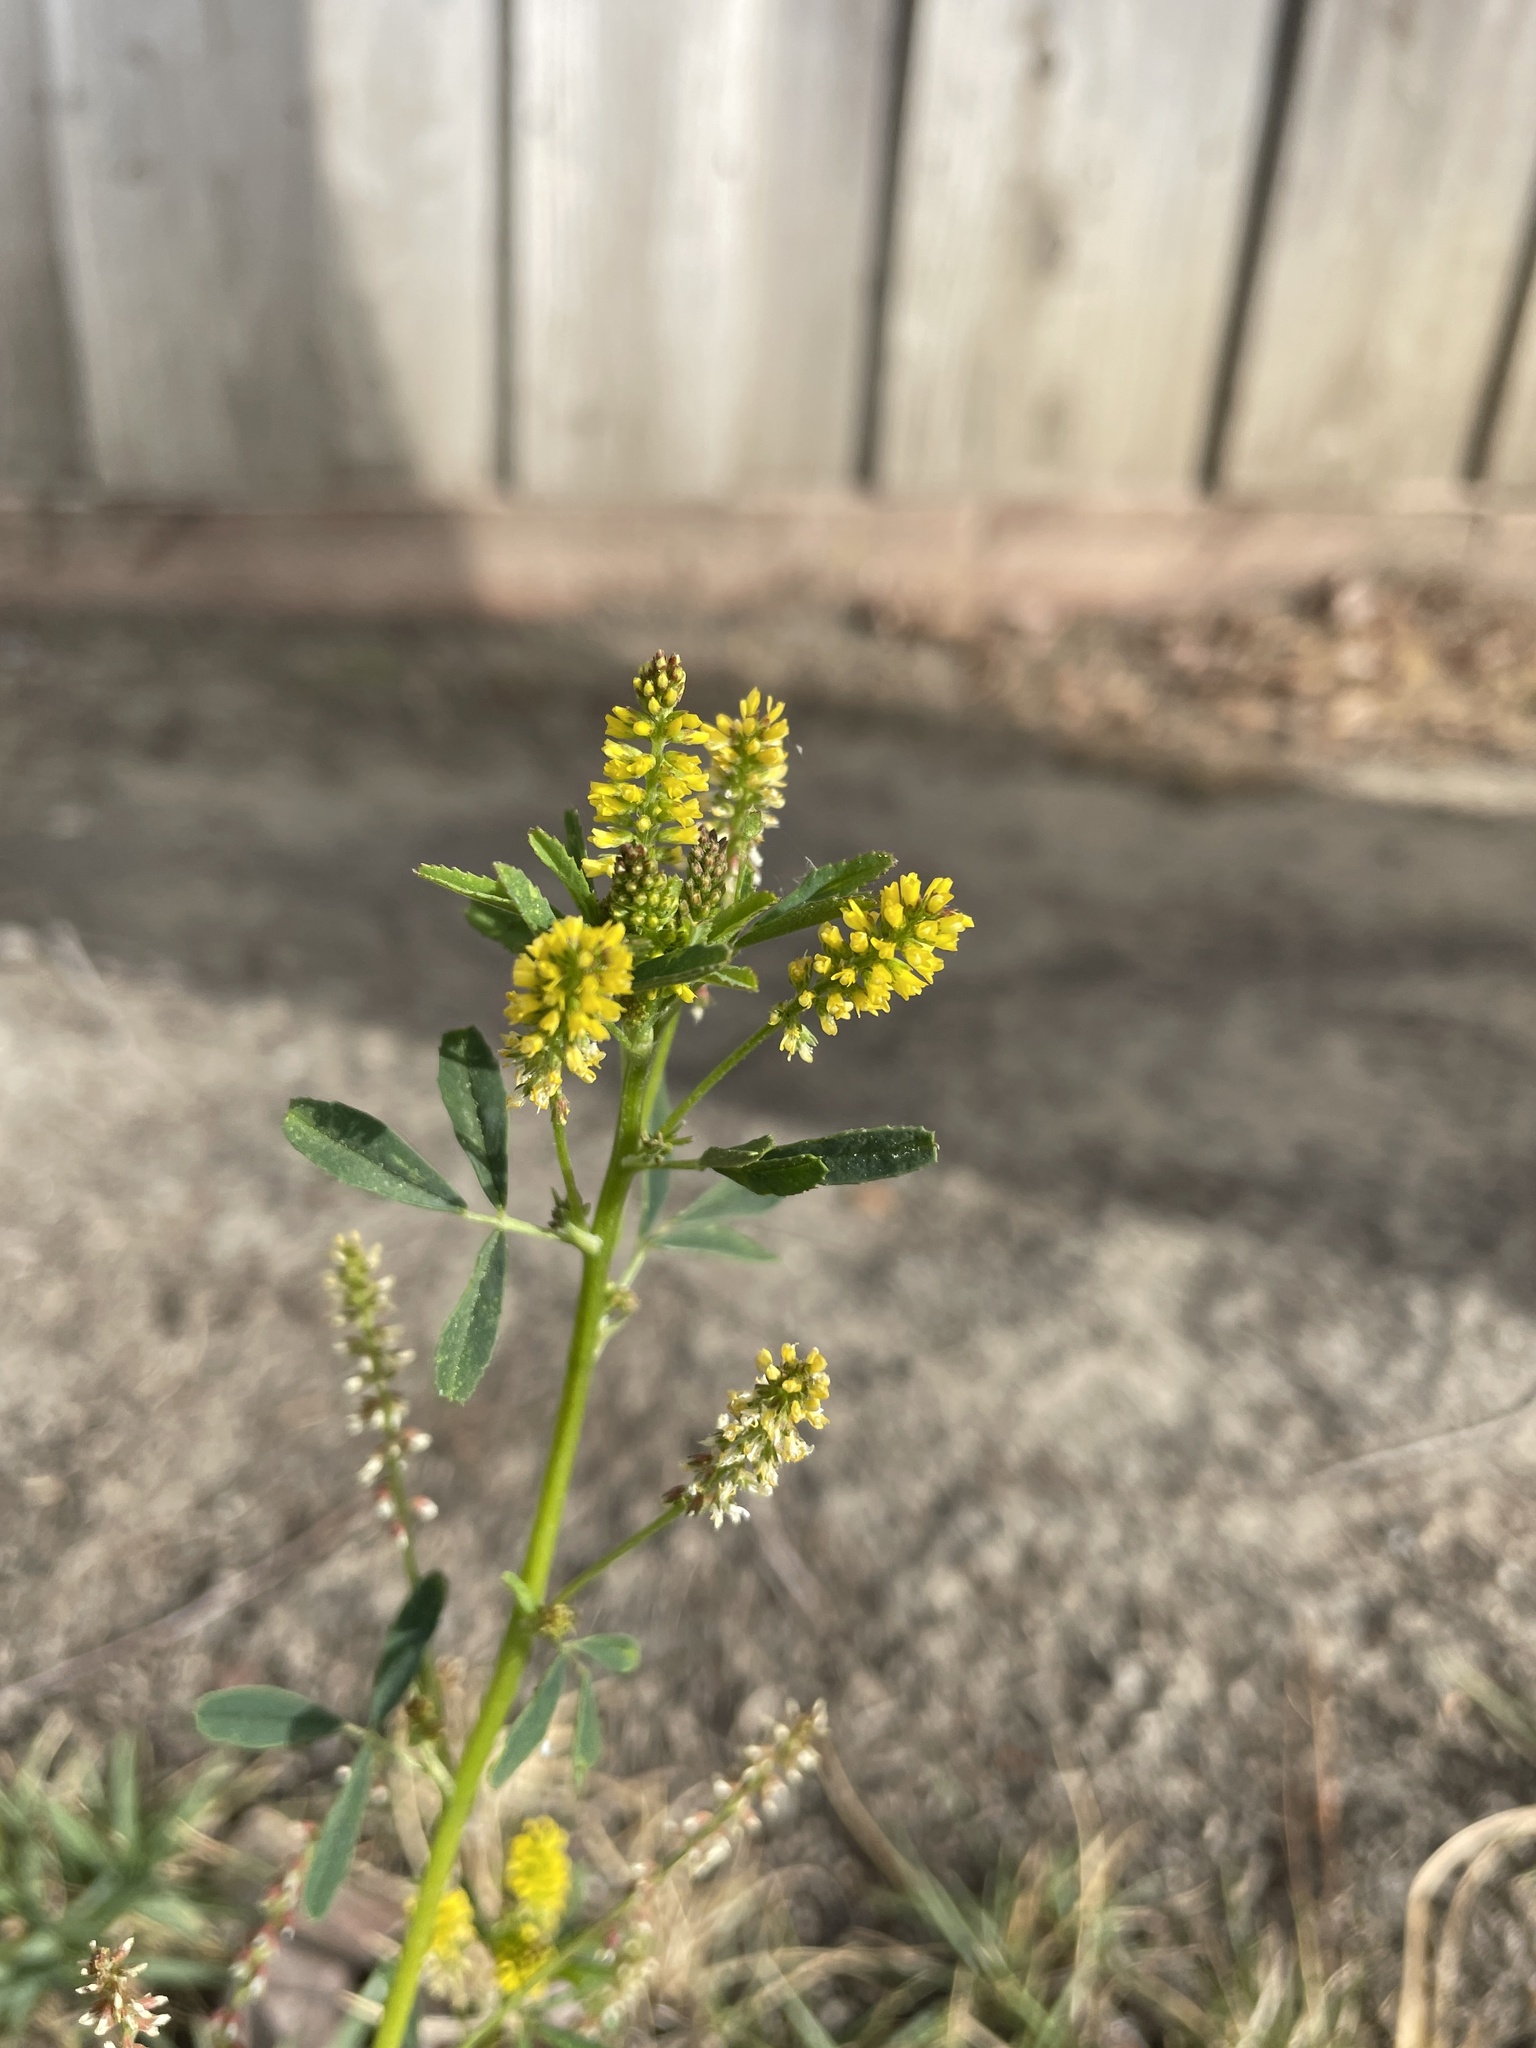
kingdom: Plantae
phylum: Tracheophyta
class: Magnoliopsida
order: Fabales
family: Fabaceae
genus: Melilotus
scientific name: Melilotus indicus
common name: Small melilot
